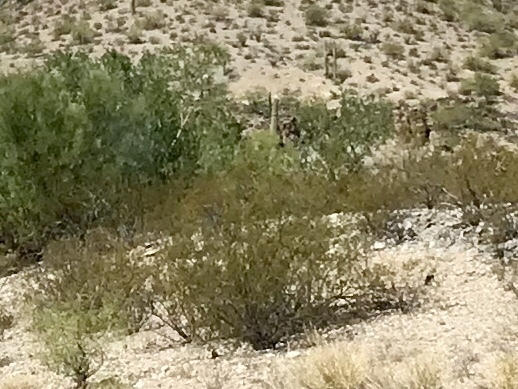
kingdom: Plantae
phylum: Tracheophyta
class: Magnoliopsida
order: Zygophyllales
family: Zygophyllaceae
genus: Larrea
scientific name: Larrea tridentata
